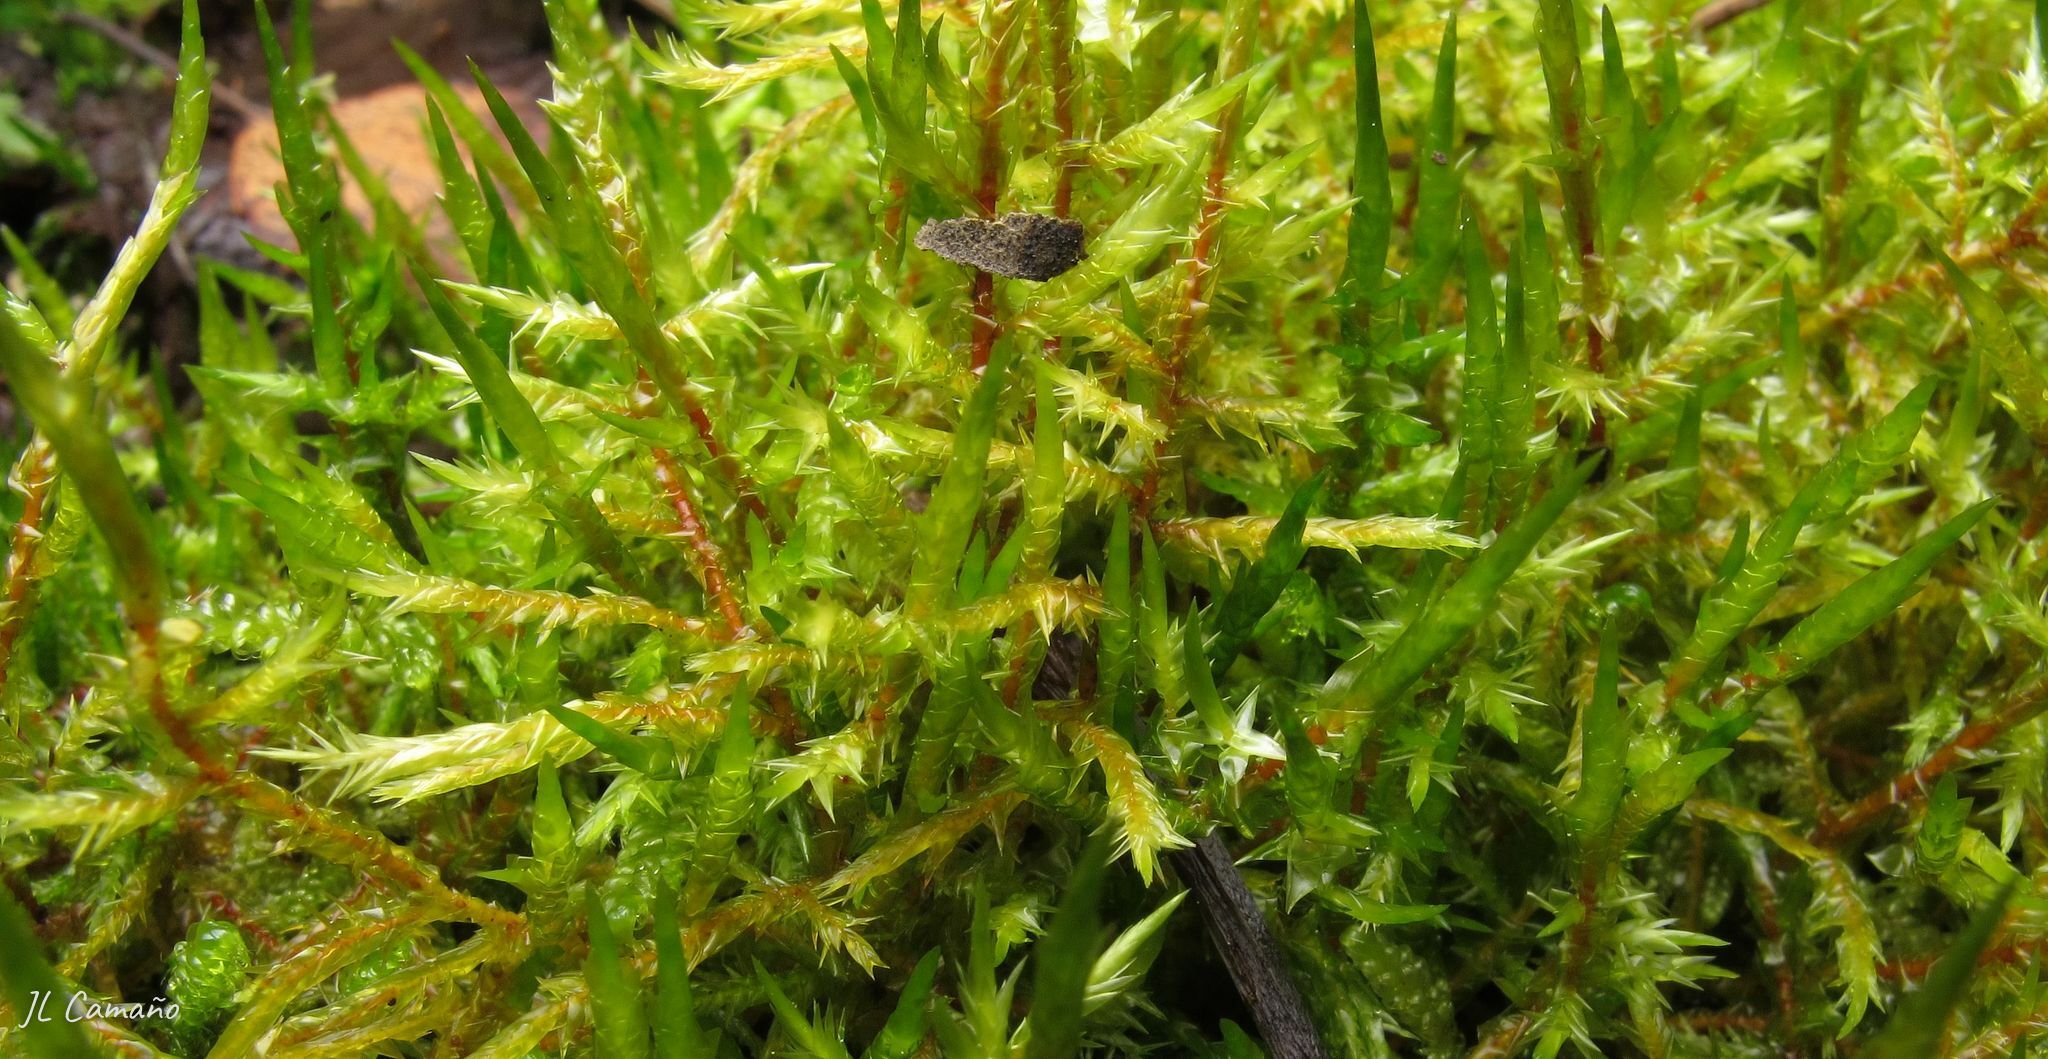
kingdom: Plantae
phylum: Bryophyta
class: Bryopsida
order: Hypnales
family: Pylaisiaceae
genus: Calliergonella
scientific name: Calliergonella cuspidata
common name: Common large wetland moss
